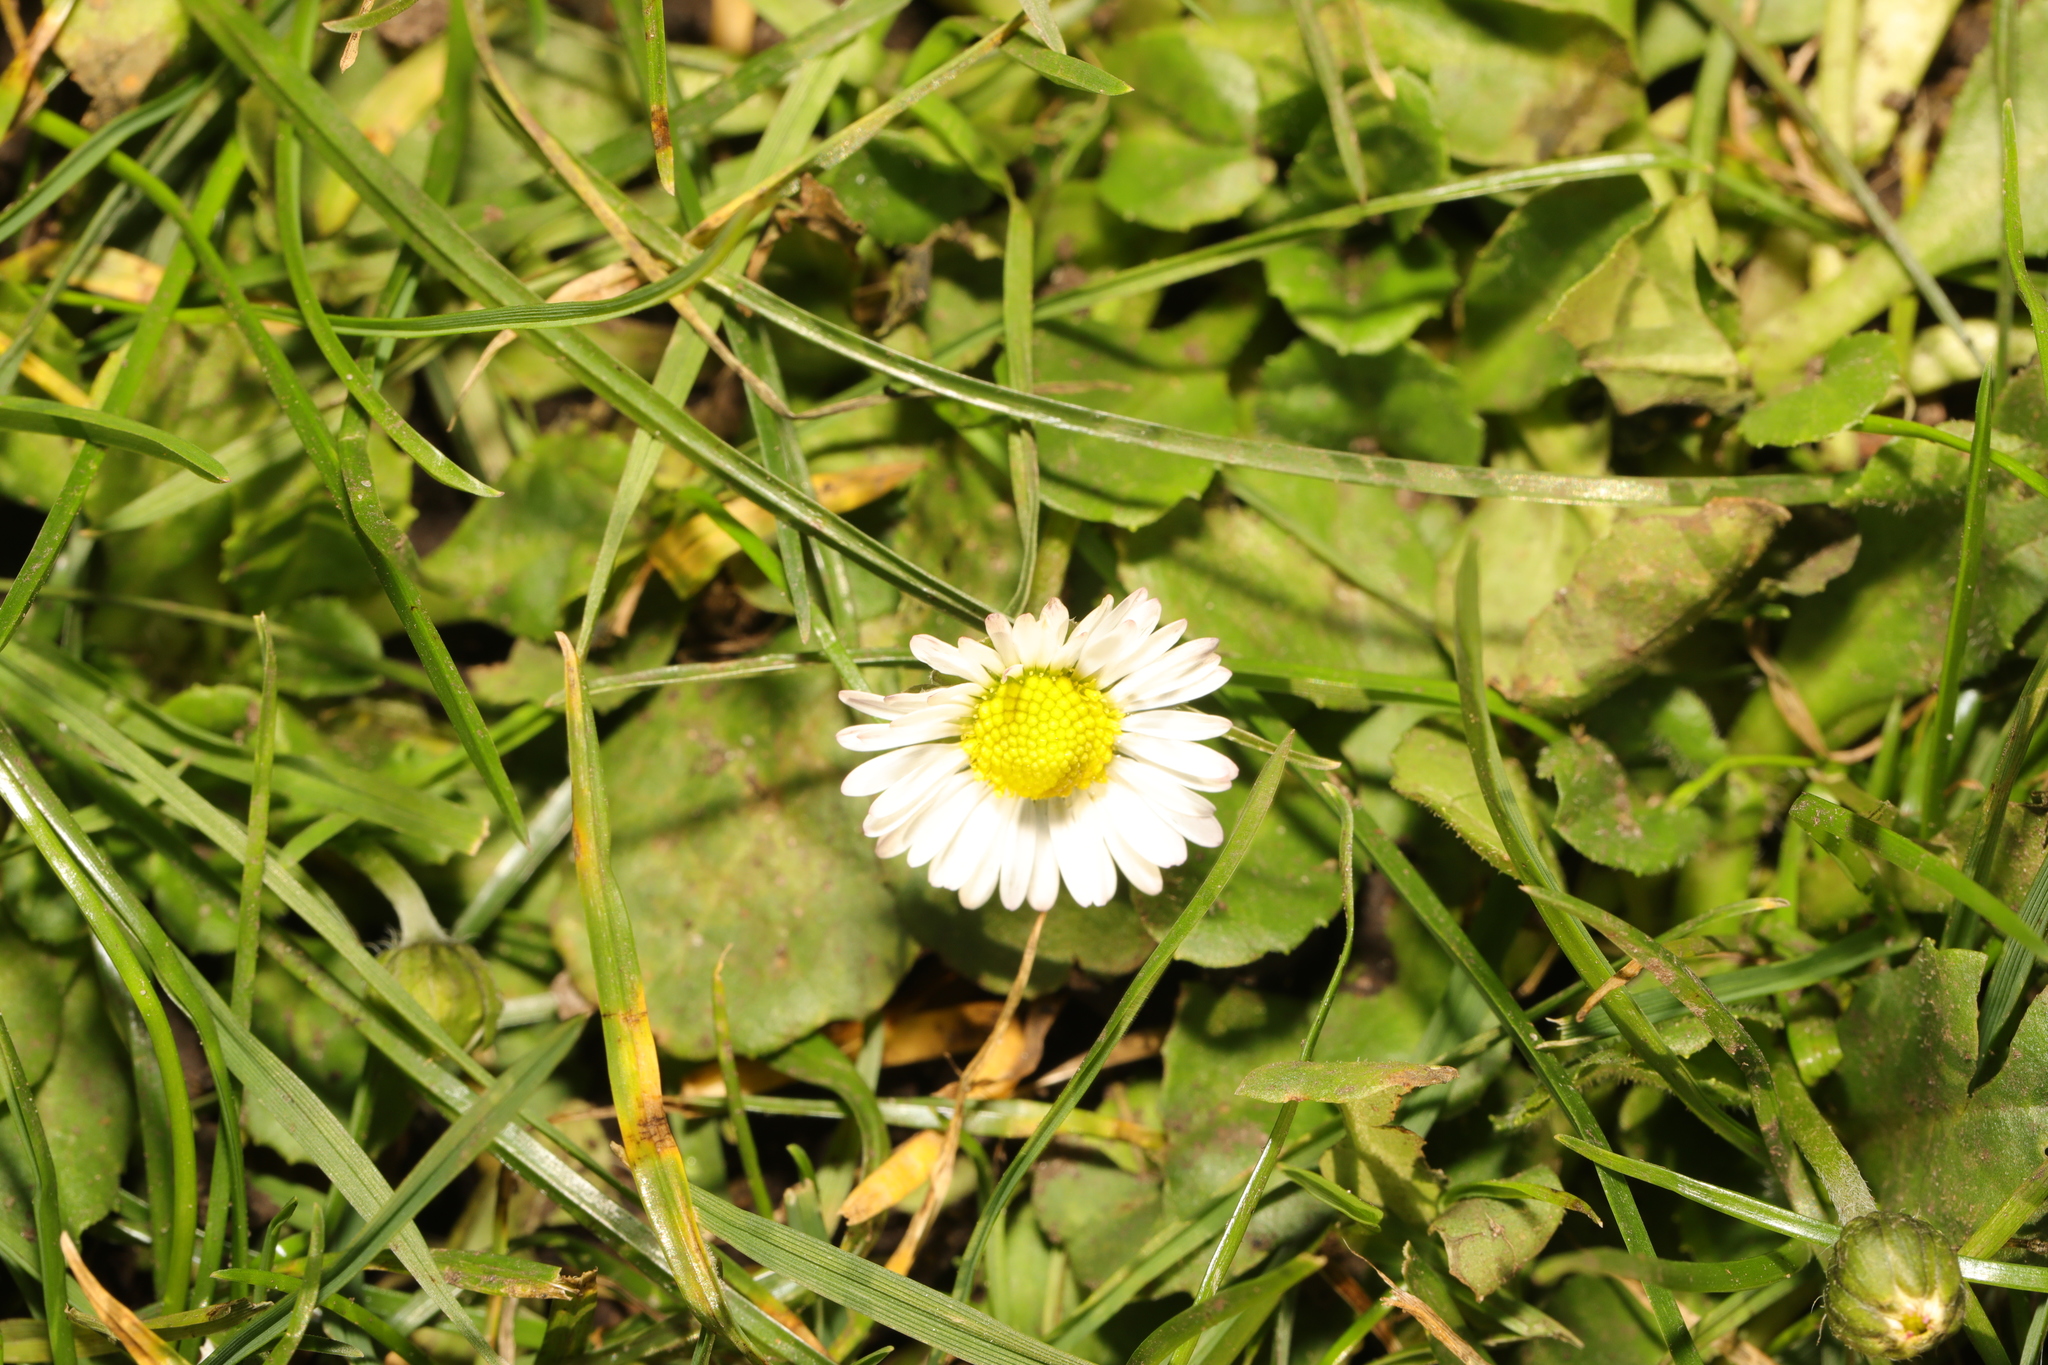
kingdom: Plantae
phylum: Tracheophyta
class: Magnoliopsida
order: Asterales
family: Asteraceae
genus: Bellis
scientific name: Bellis perennis
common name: Lawndaisy
